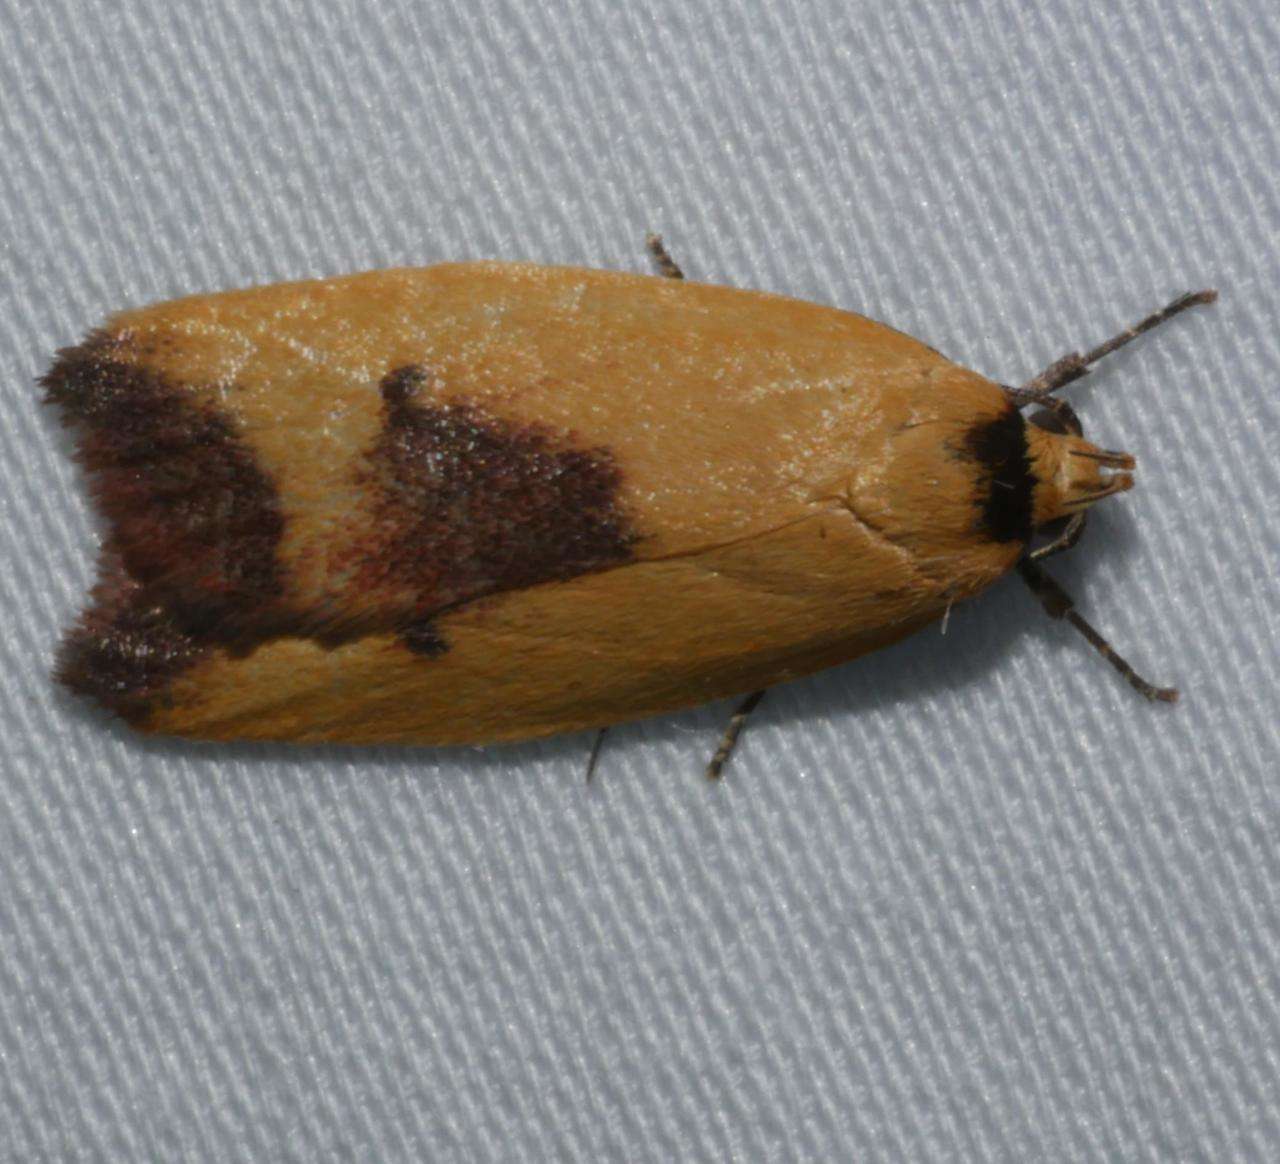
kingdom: Animalia
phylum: Arthropoda
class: Insecta
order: Lepidoptera
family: Oecophoridae
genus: Ageletha
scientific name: Ageletha hemiteles
